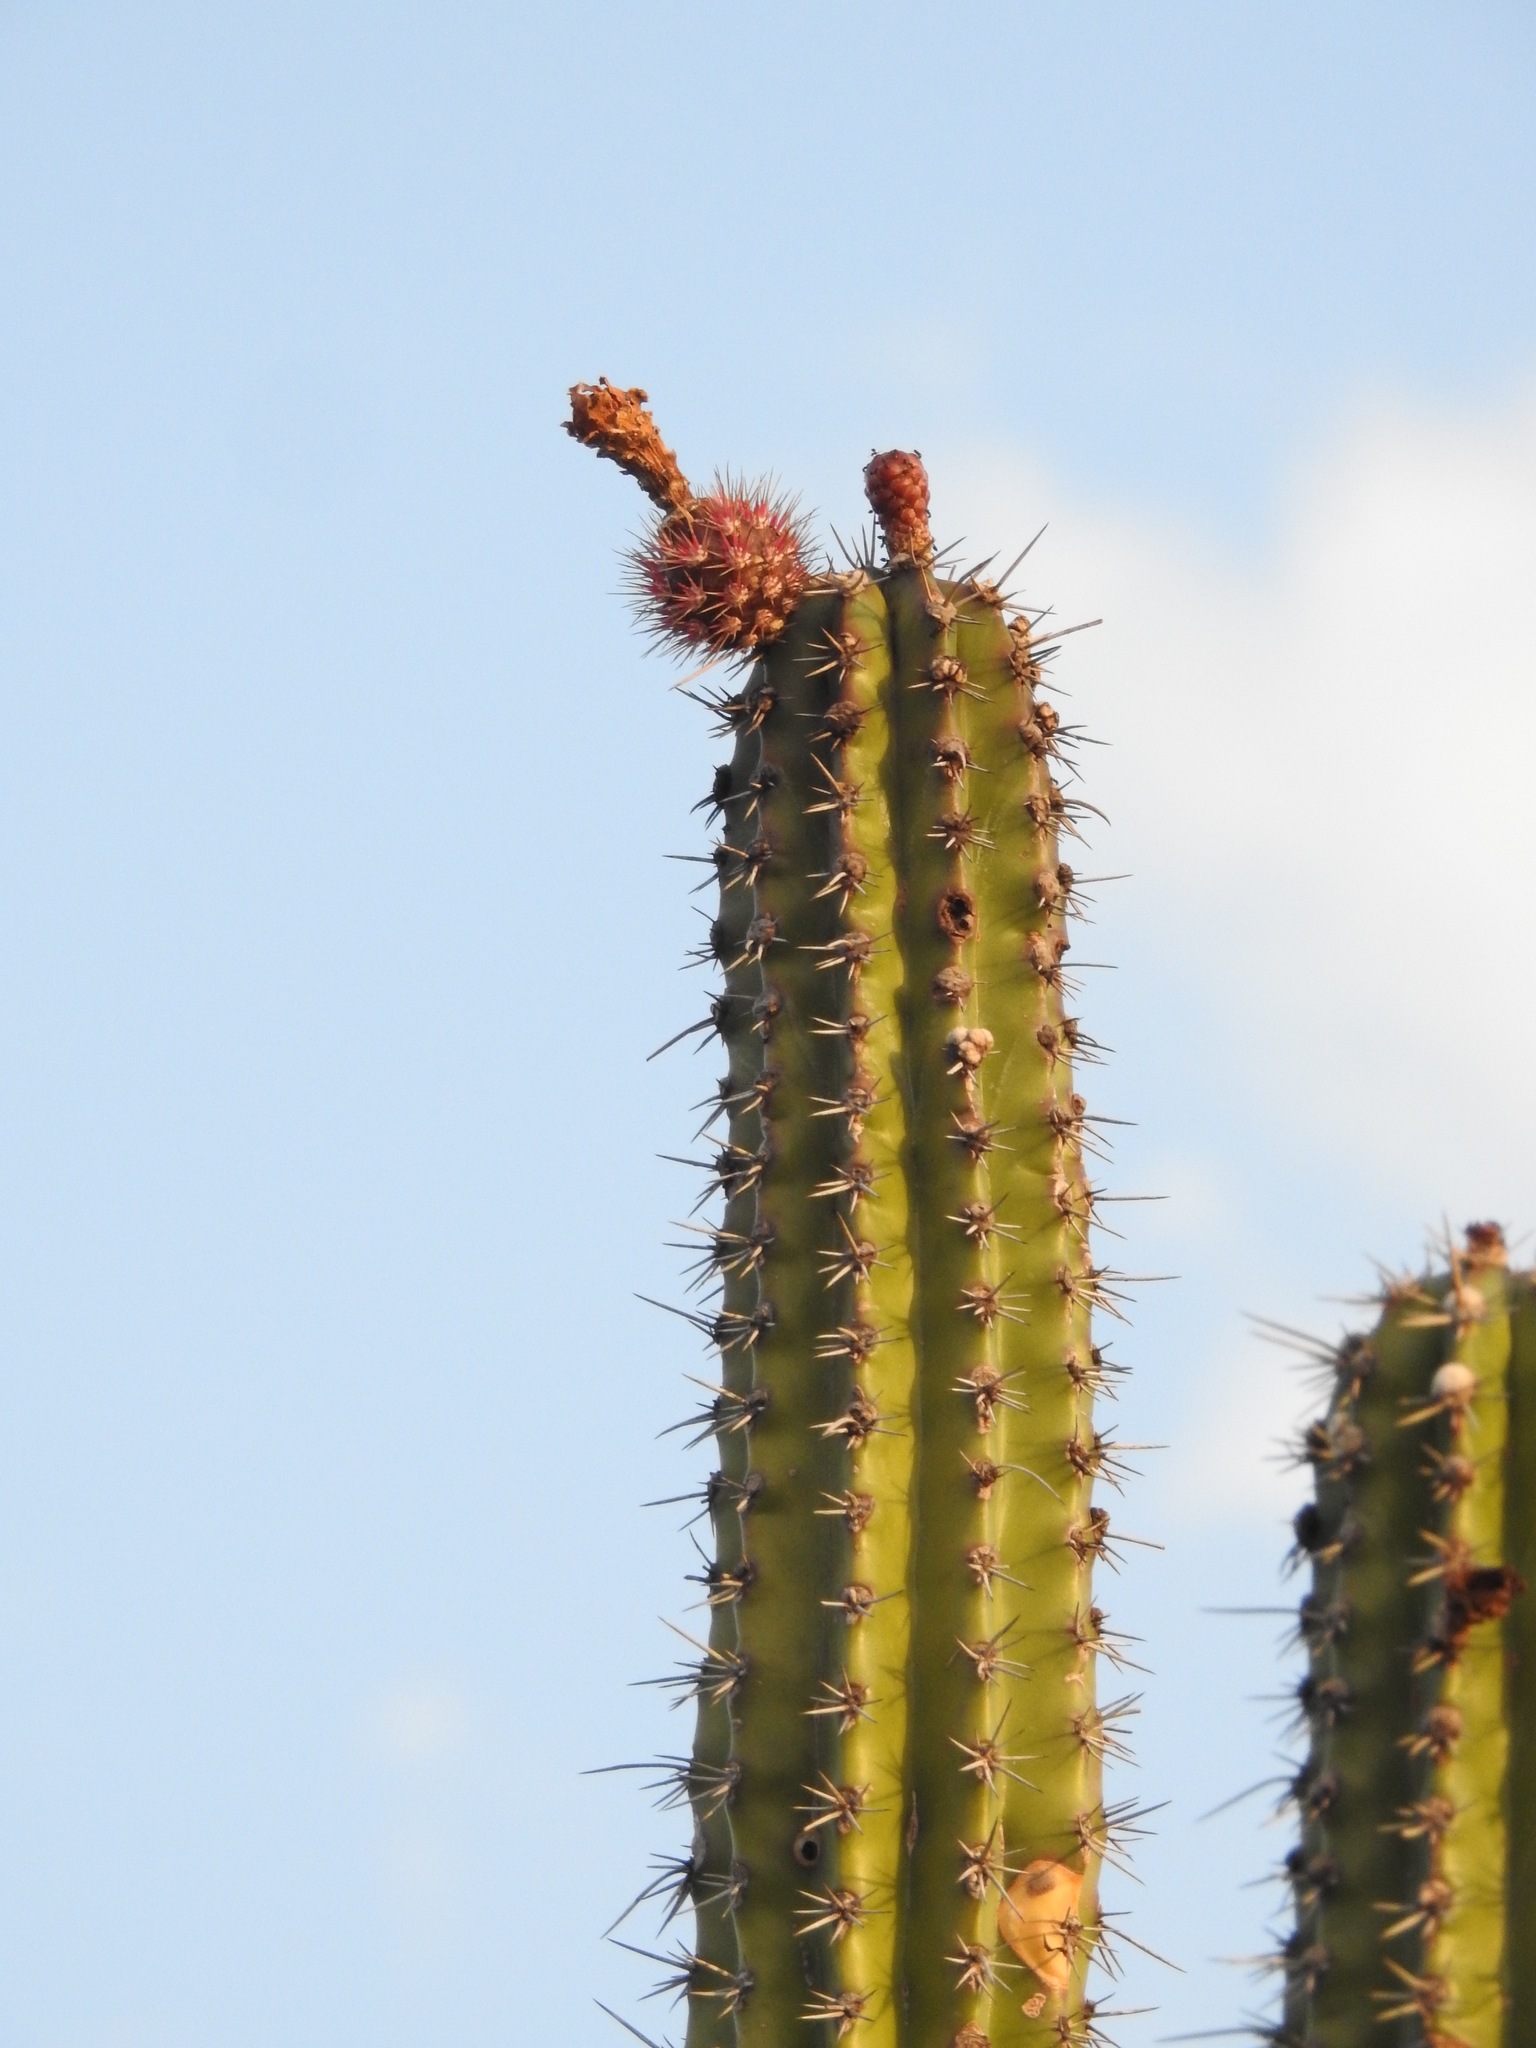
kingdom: Plantae
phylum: Tracheophyta
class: Magnoliopsida
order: Caryophyllales
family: Cactaceae
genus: Stenocereus
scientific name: Stenocereus griseus
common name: Tall candelabra cactus
